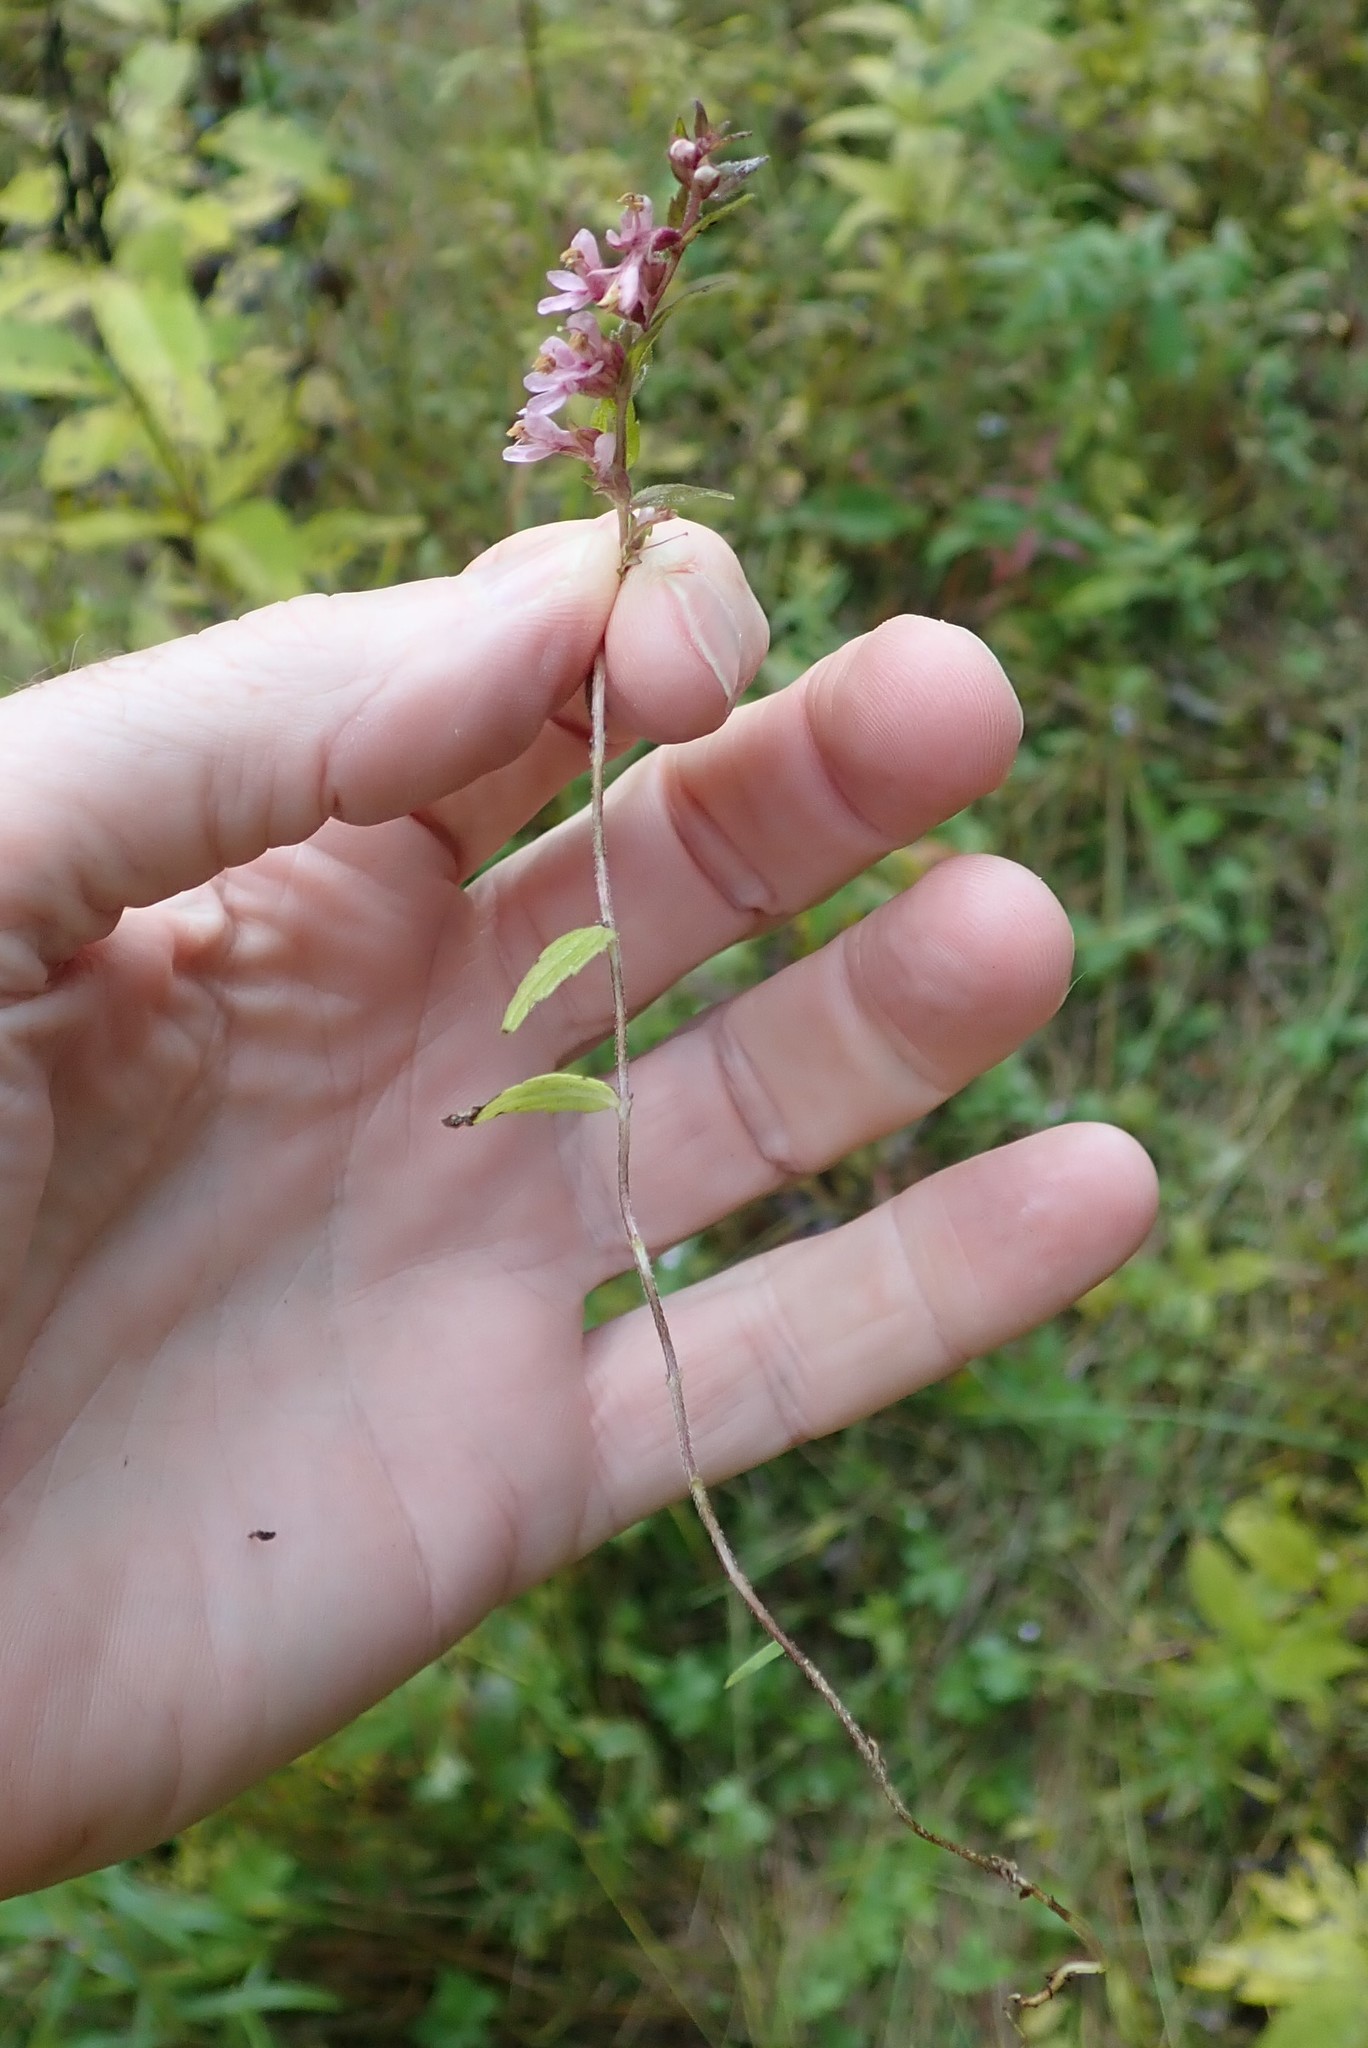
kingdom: Plantae
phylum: Tracheophyta
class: Magnoliopsida
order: Lamiales
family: Orobanchaceae
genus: Odontites
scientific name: Odontites vulgaris
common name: Broomrape
